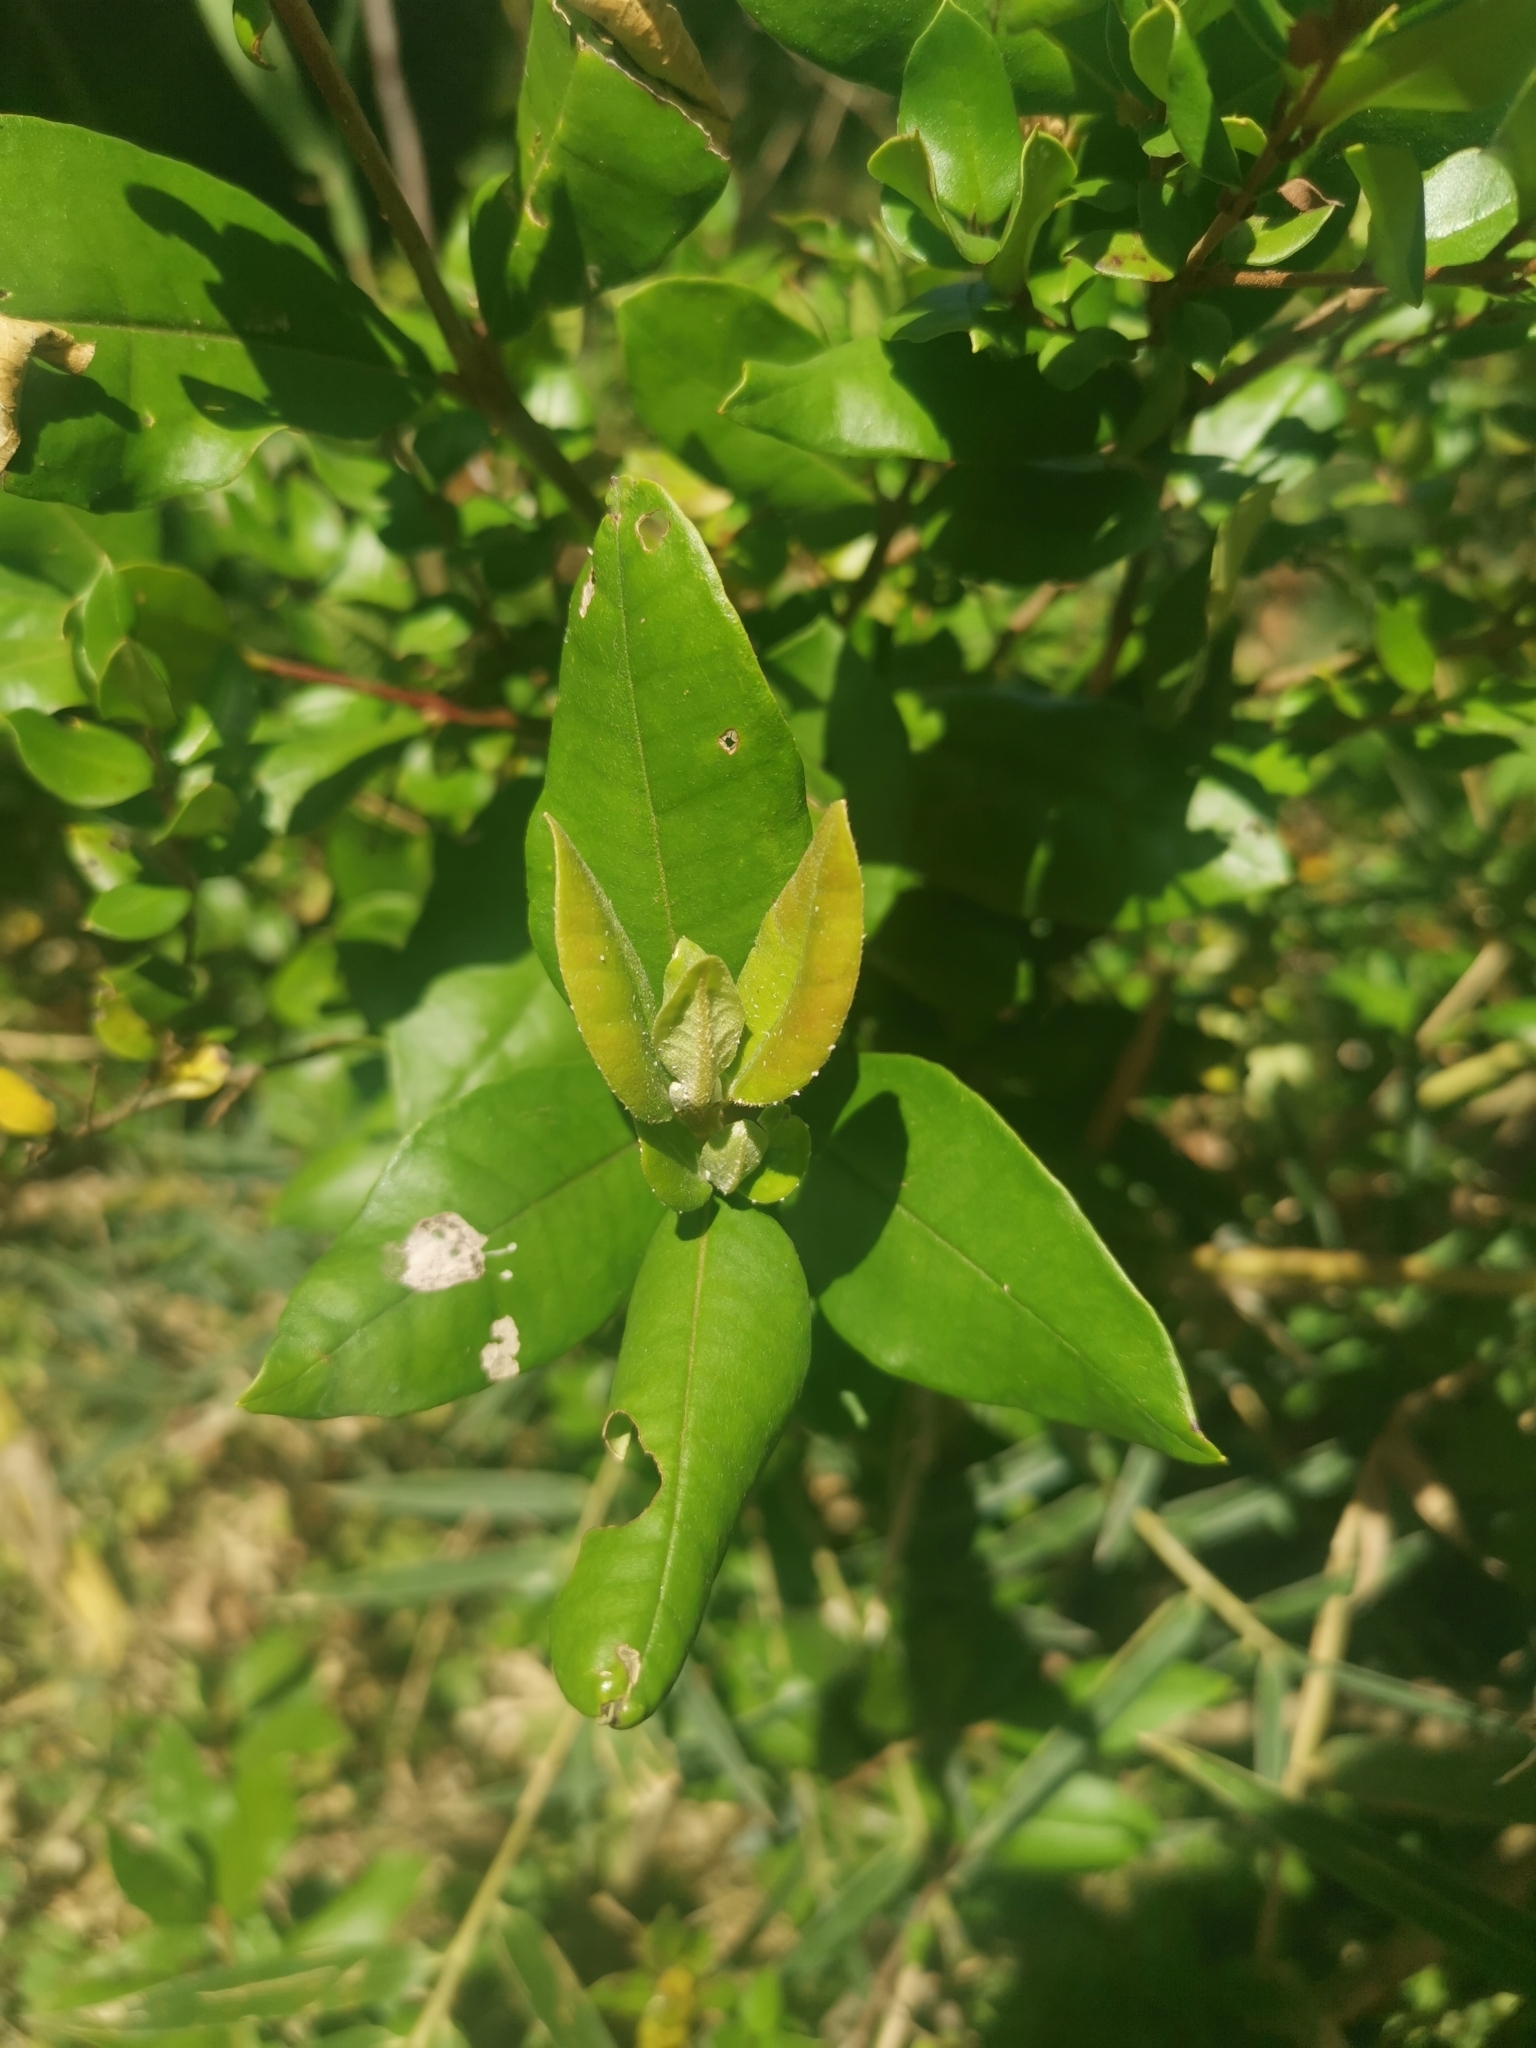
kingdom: Plantae
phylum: Tracheophyta
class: Magnoliopsida
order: Myrtales
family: Myrtaceae
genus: Myrceugenia
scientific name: Myrceugenia exsucca
